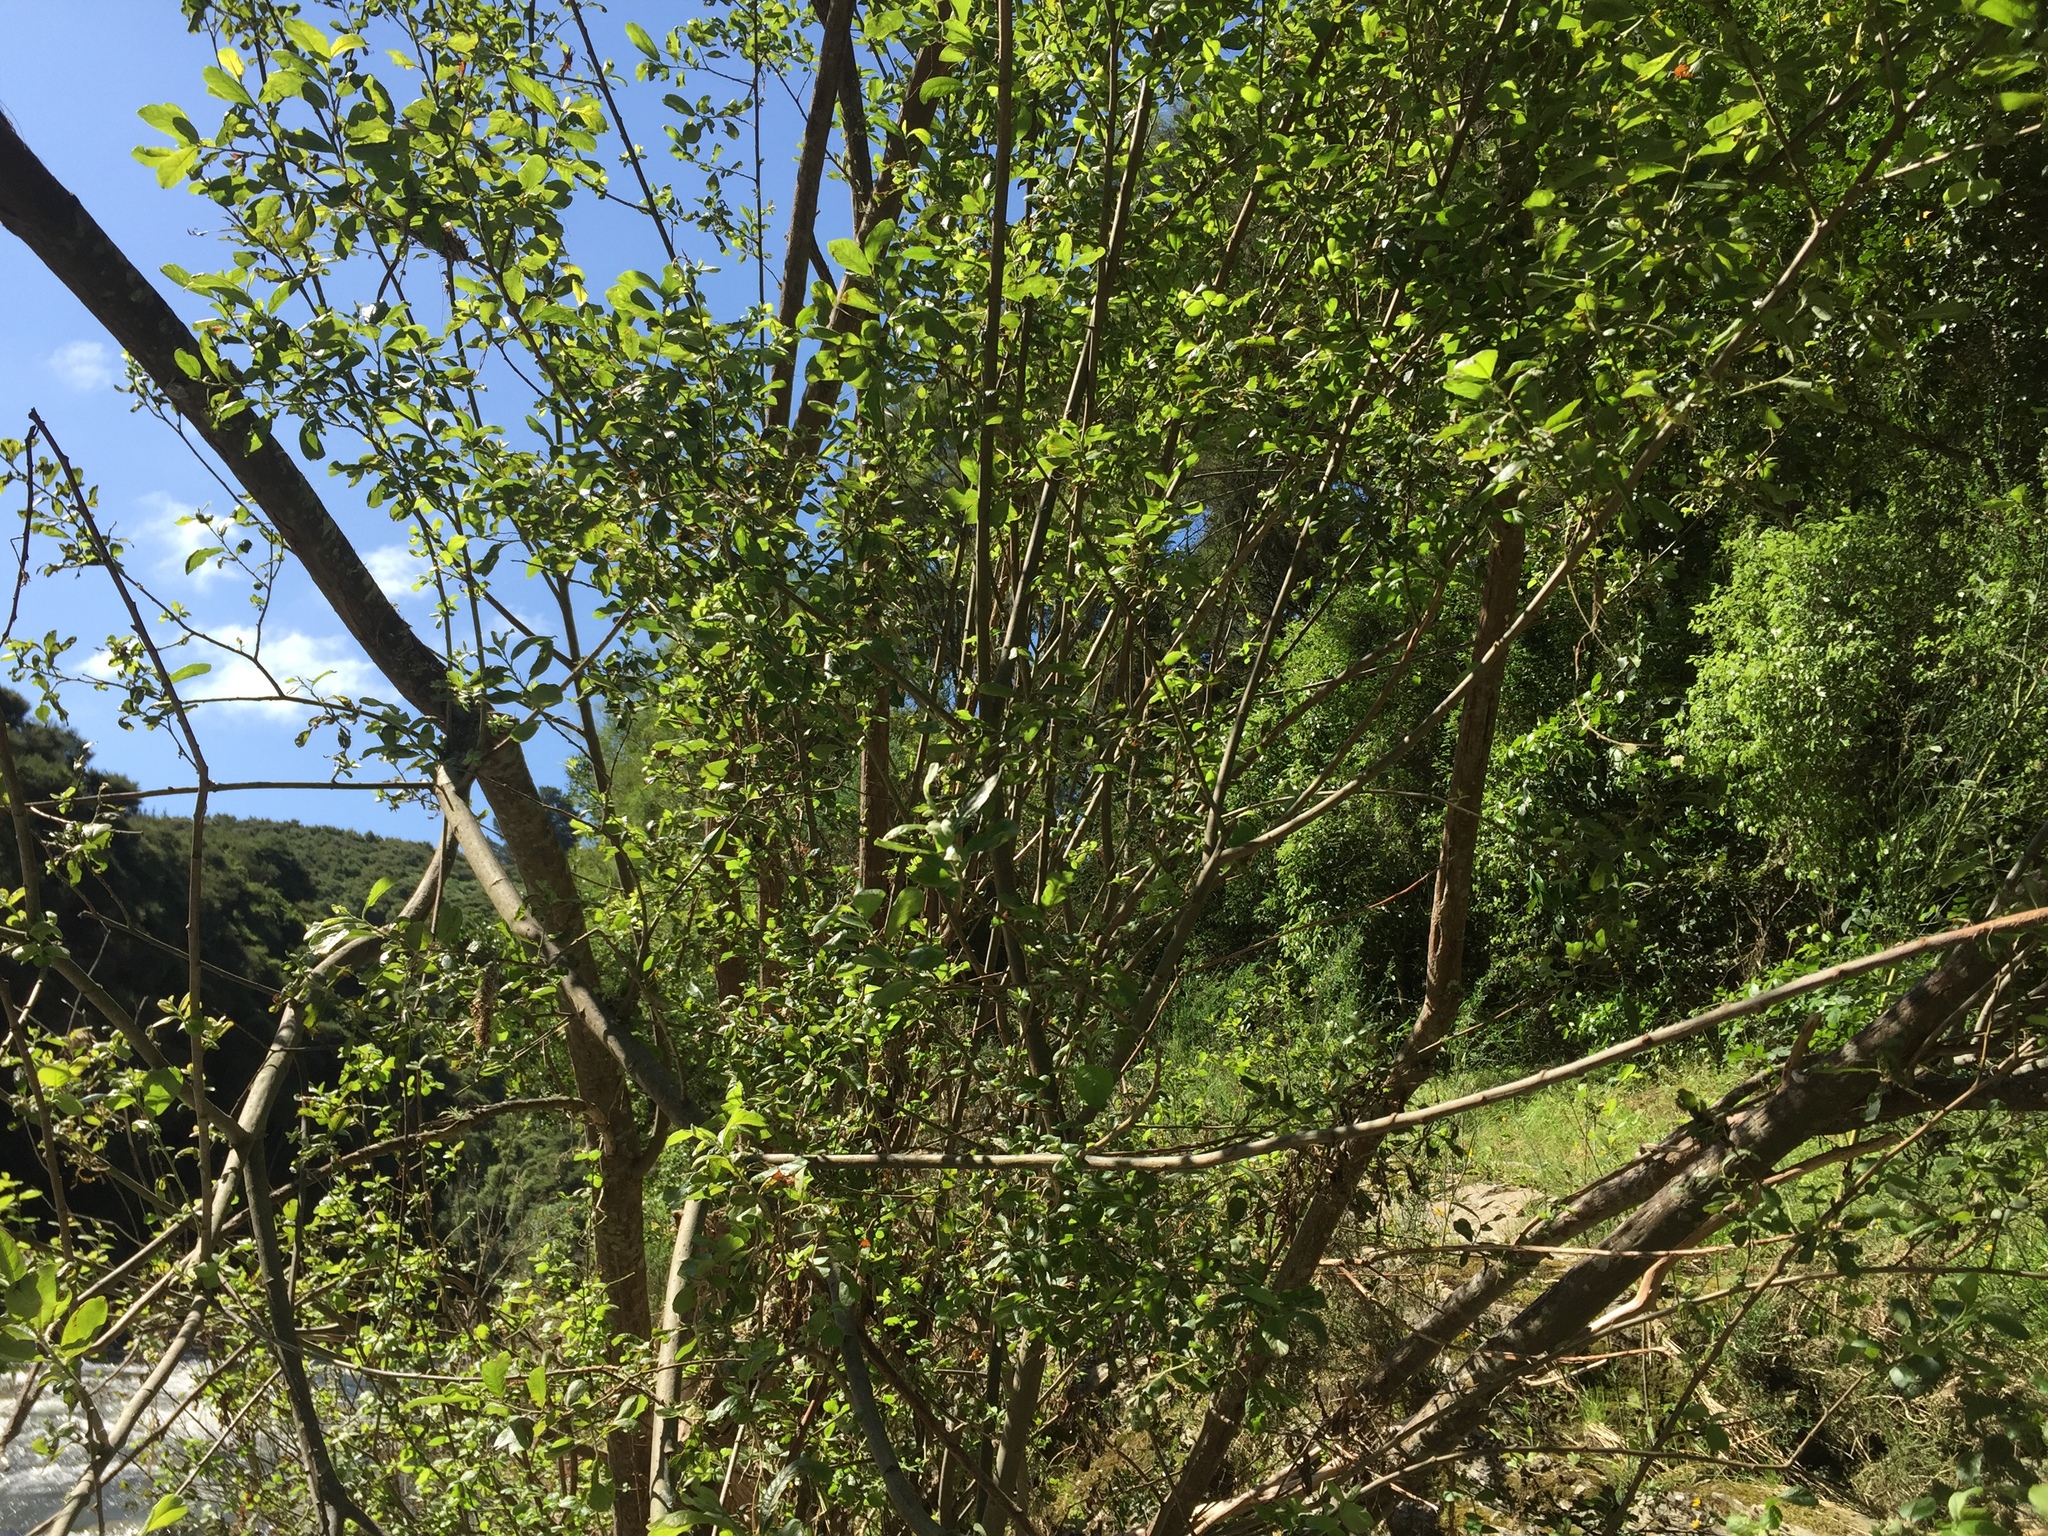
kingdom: Plantae
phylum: Tracheophyta
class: Magnoliopsida
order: Malpighiales
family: Salicaceae
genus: Salix
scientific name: Salix cinerea
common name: Common sallow
